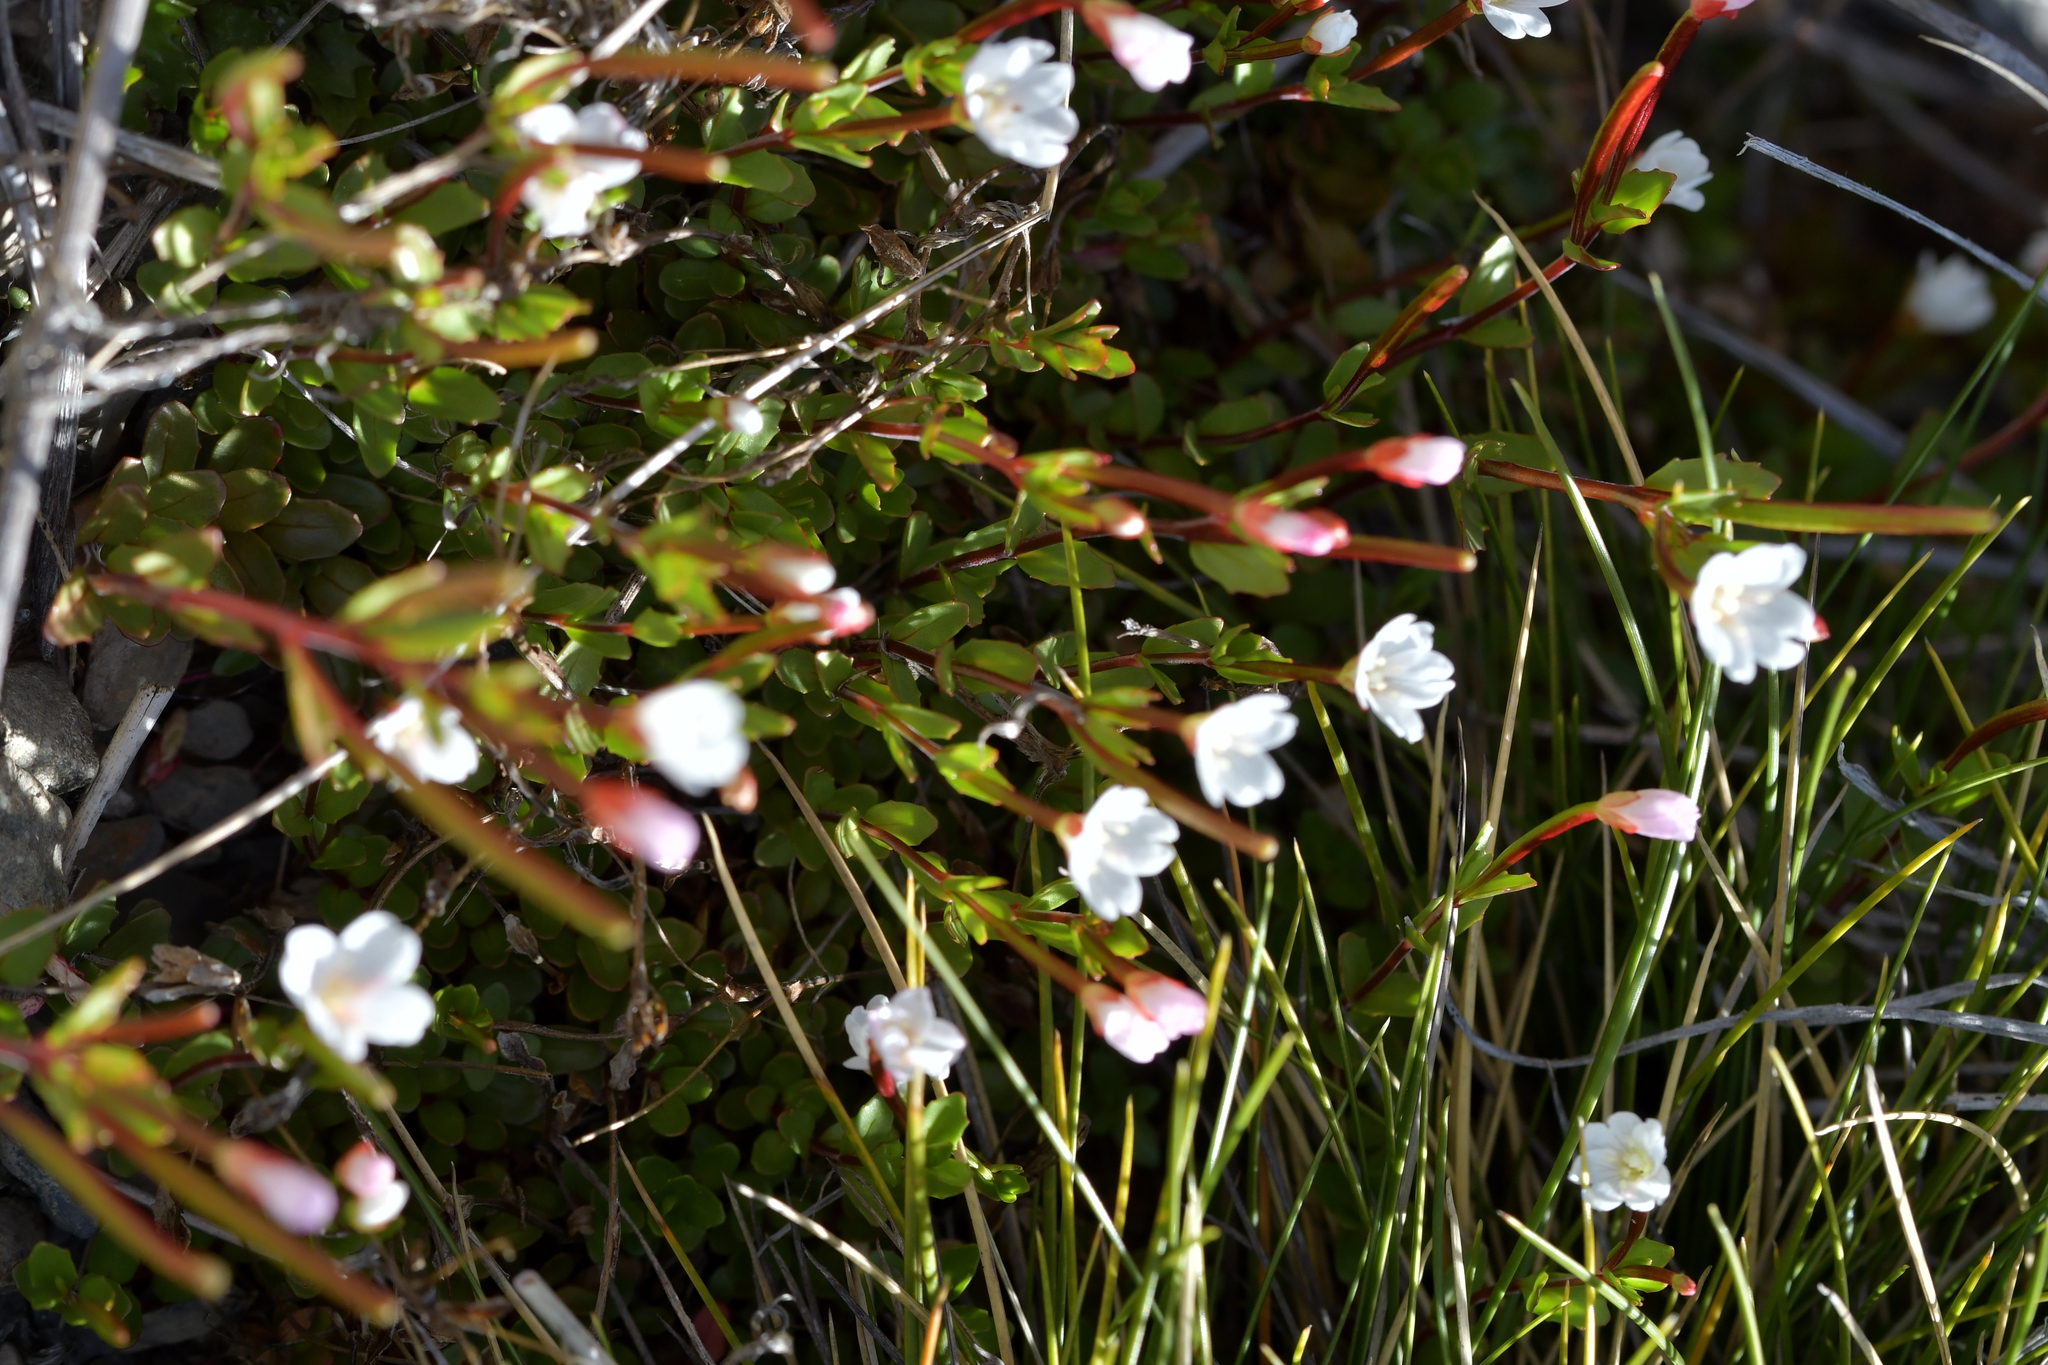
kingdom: Plantae
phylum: Tracheophyta
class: Magnoliopsida
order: Myrtales
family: Onagraceae
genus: Epilobium
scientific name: Epilobium alsinoides
